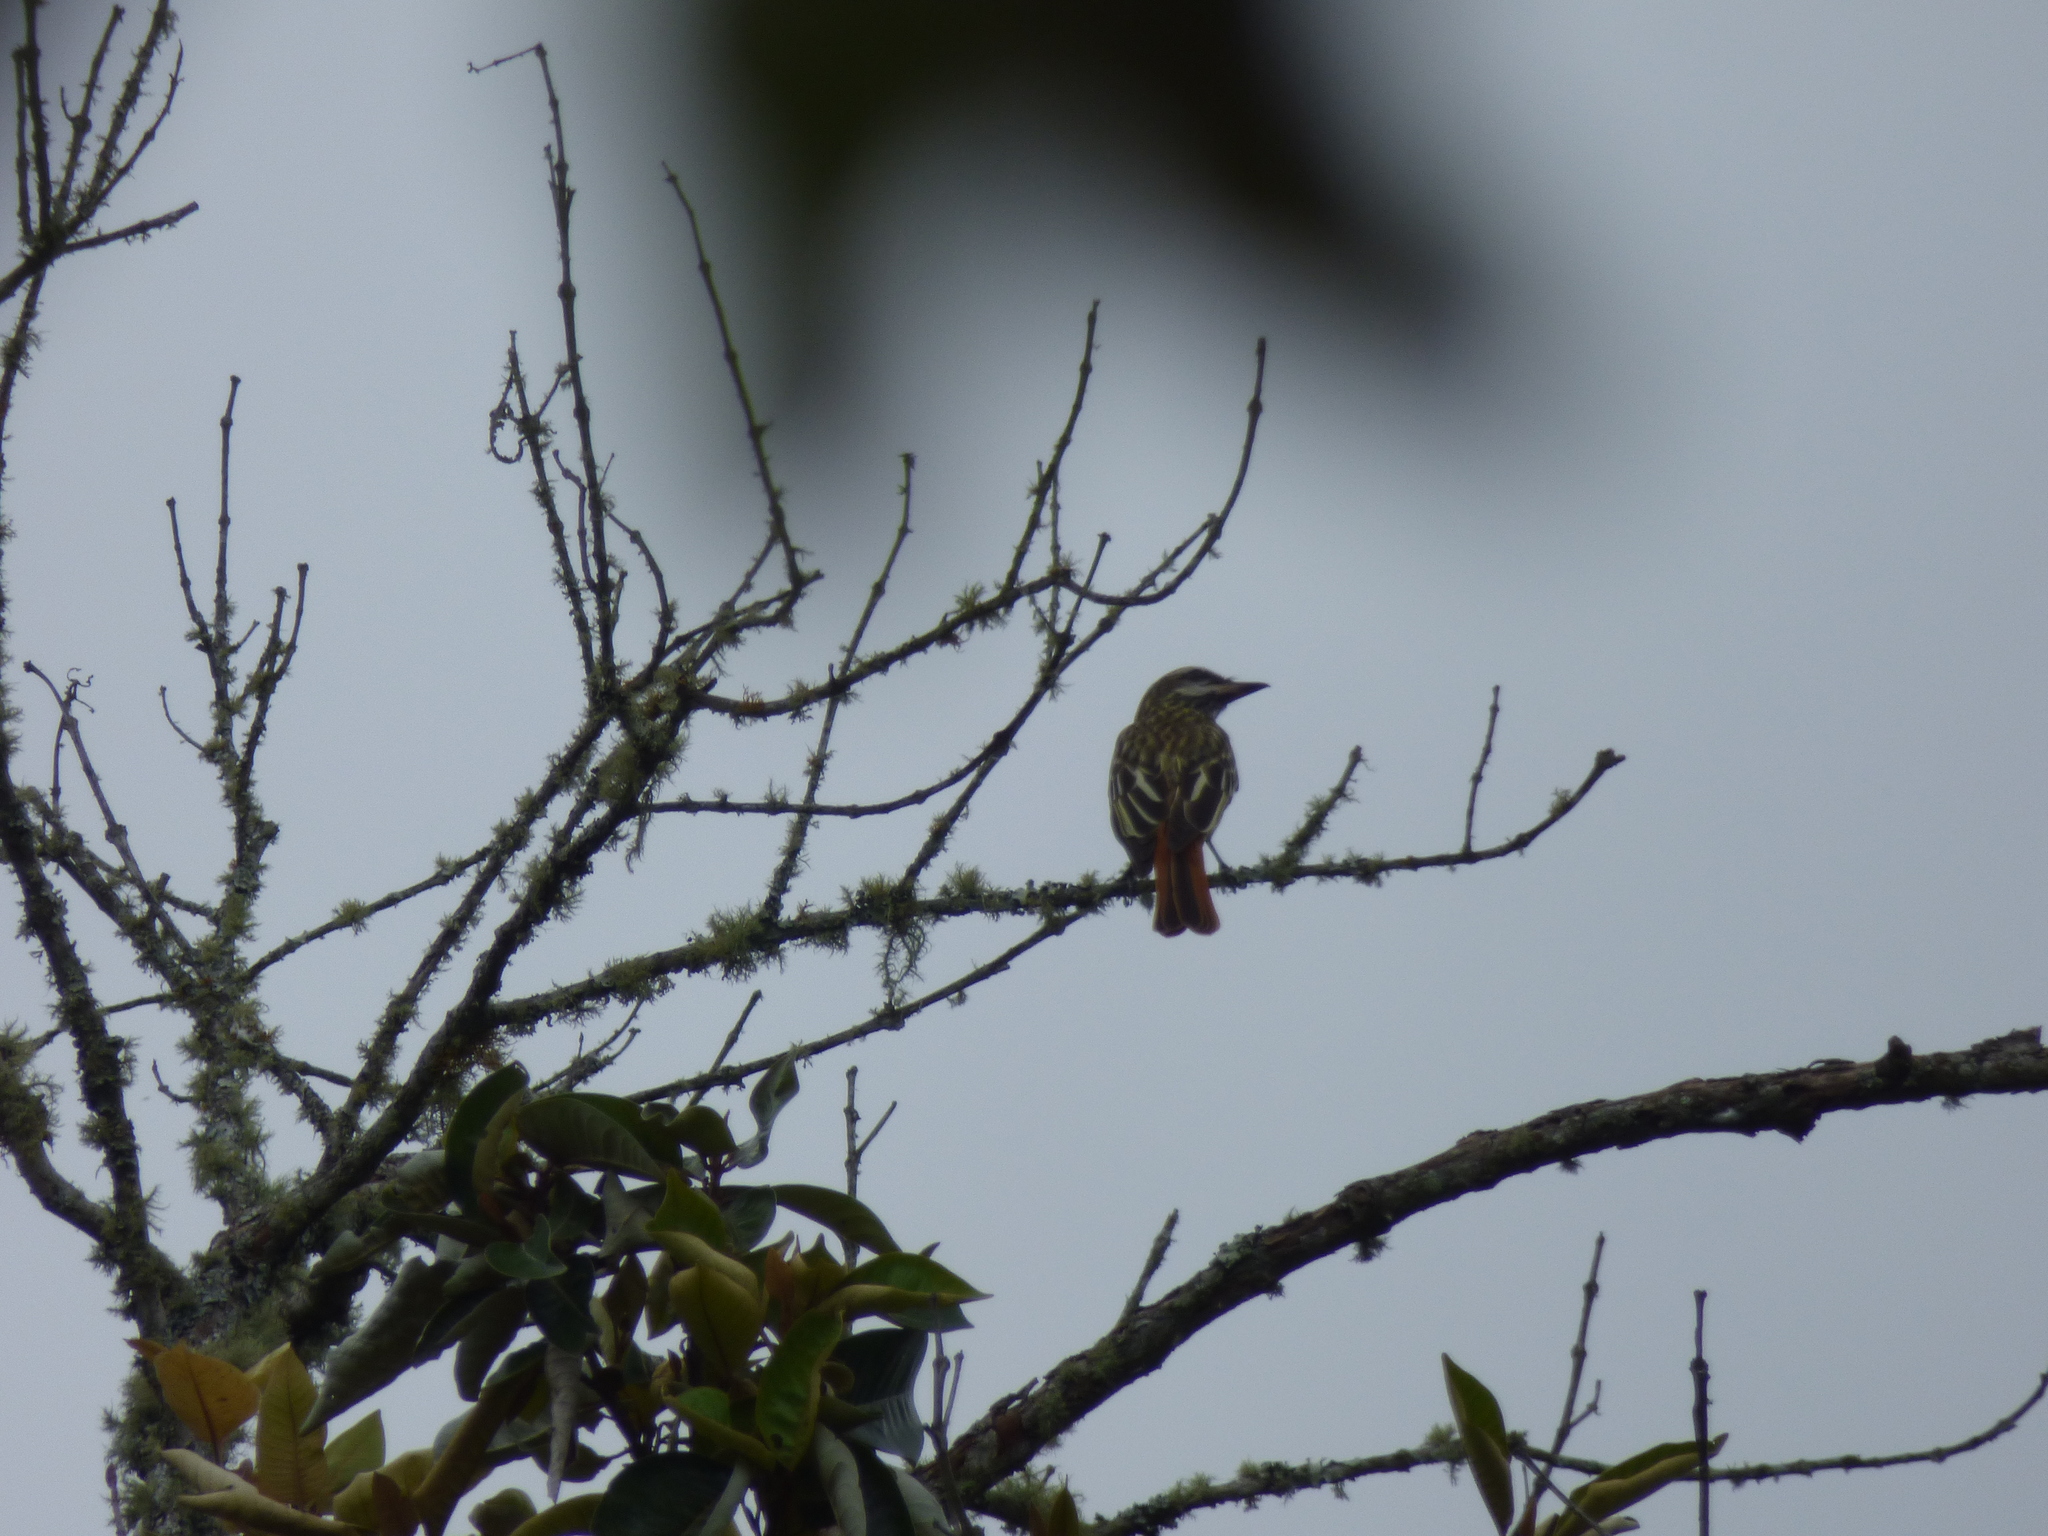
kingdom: Animalia
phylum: Chordata
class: Aves
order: Passeriformes
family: Tyrannidae
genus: Myiodynastes
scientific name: Myiodynastes luteiventris
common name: Sulphur-bellied flycatcher
